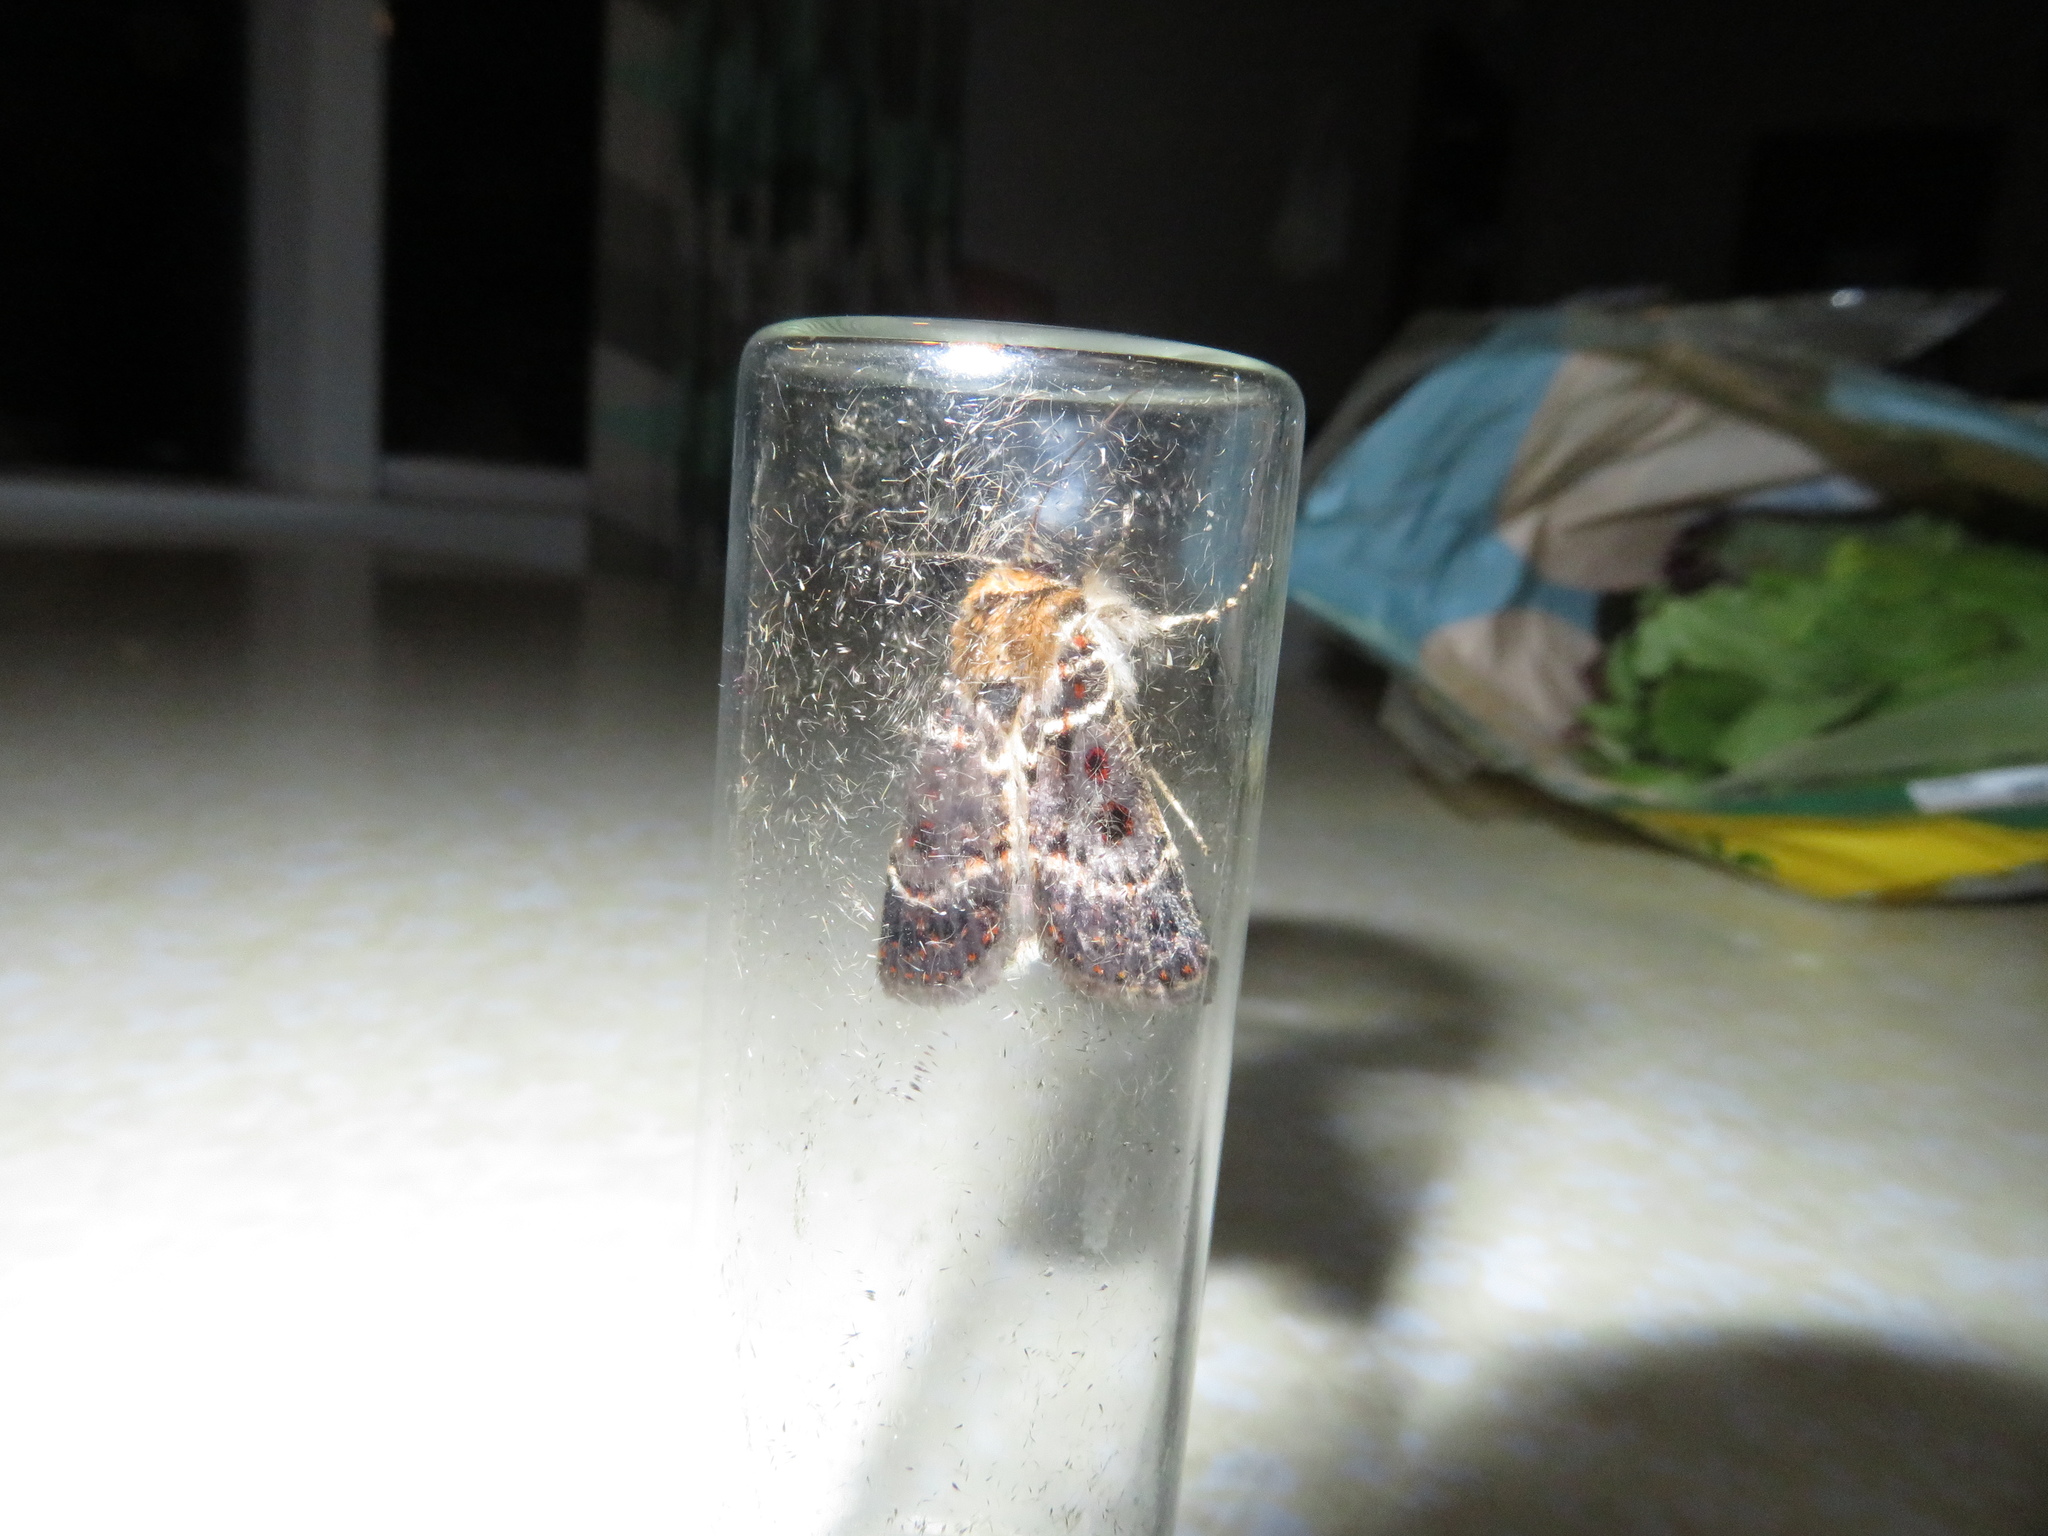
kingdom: Animalia
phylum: Arthropoda
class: Insecta
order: Lepidoptera
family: Noctuidae
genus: Proteuxoa
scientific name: Proteuxoa sanguinipuncta
